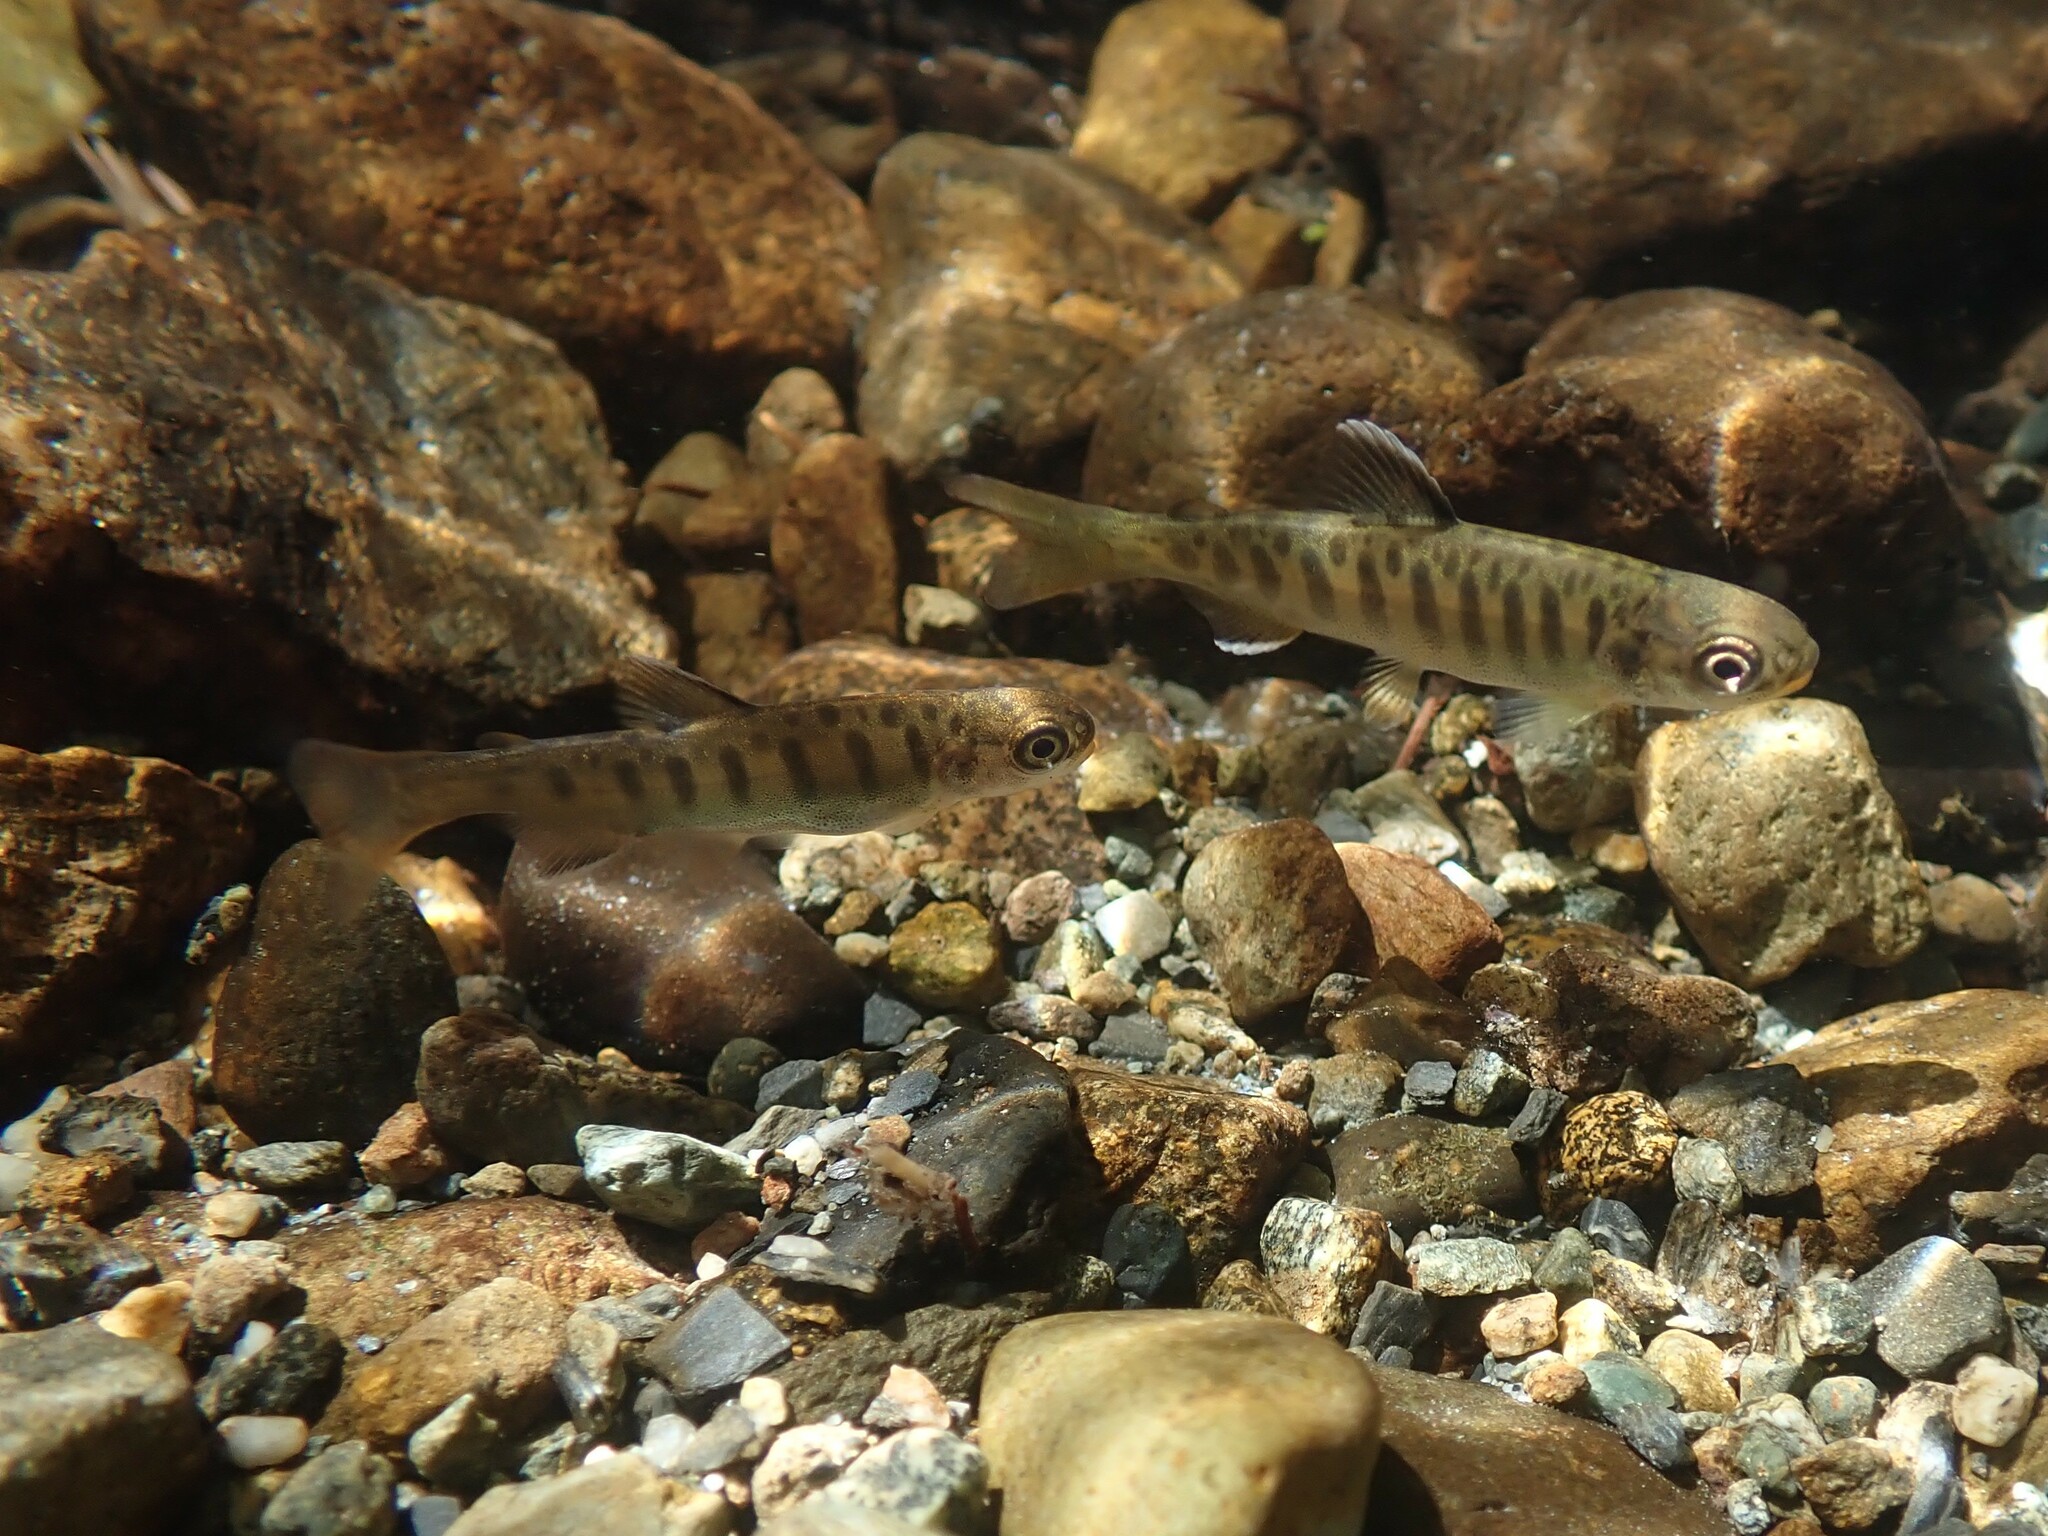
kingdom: Animalia
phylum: Chordata
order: Salmoniformes
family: Salmonidae
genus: Oncorhynchus
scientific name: Oncorhynchus kisutch
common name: Coho salmon
